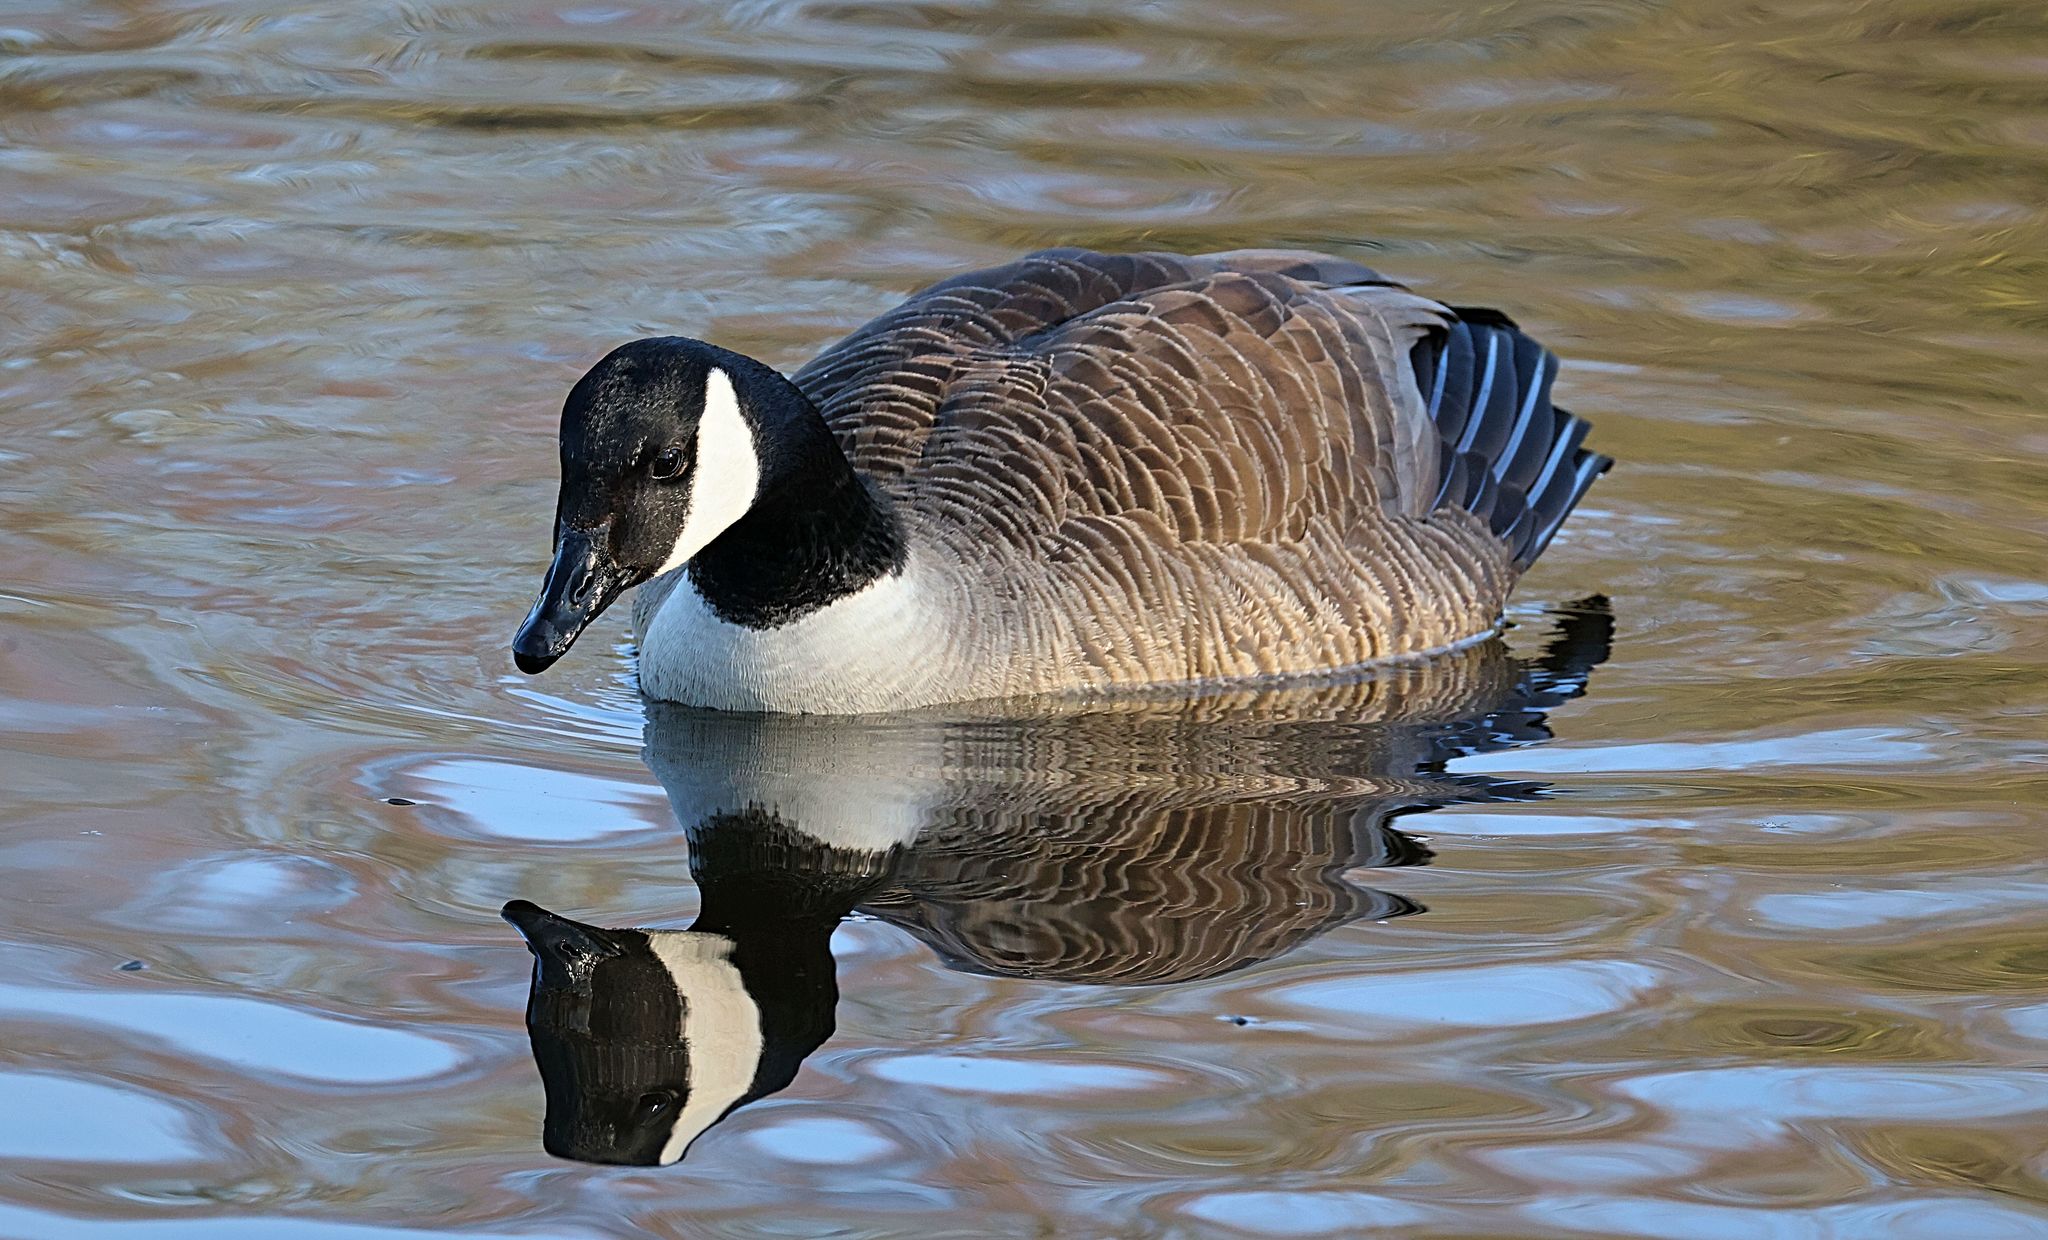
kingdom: Animalia
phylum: Chordata
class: Aves
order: Anseriformes
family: Anatidae
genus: Branta
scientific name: Branta canadensis
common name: Canada goose
